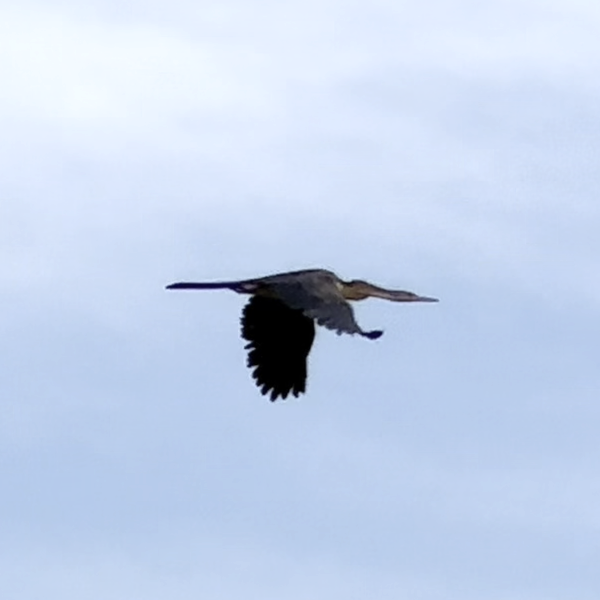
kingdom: Animalia
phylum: Chordata
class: Aves
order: Suliformes
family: Anhingidae
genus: Anhinga
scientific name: Anhinga novaehollandiae
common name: Australasian darter
